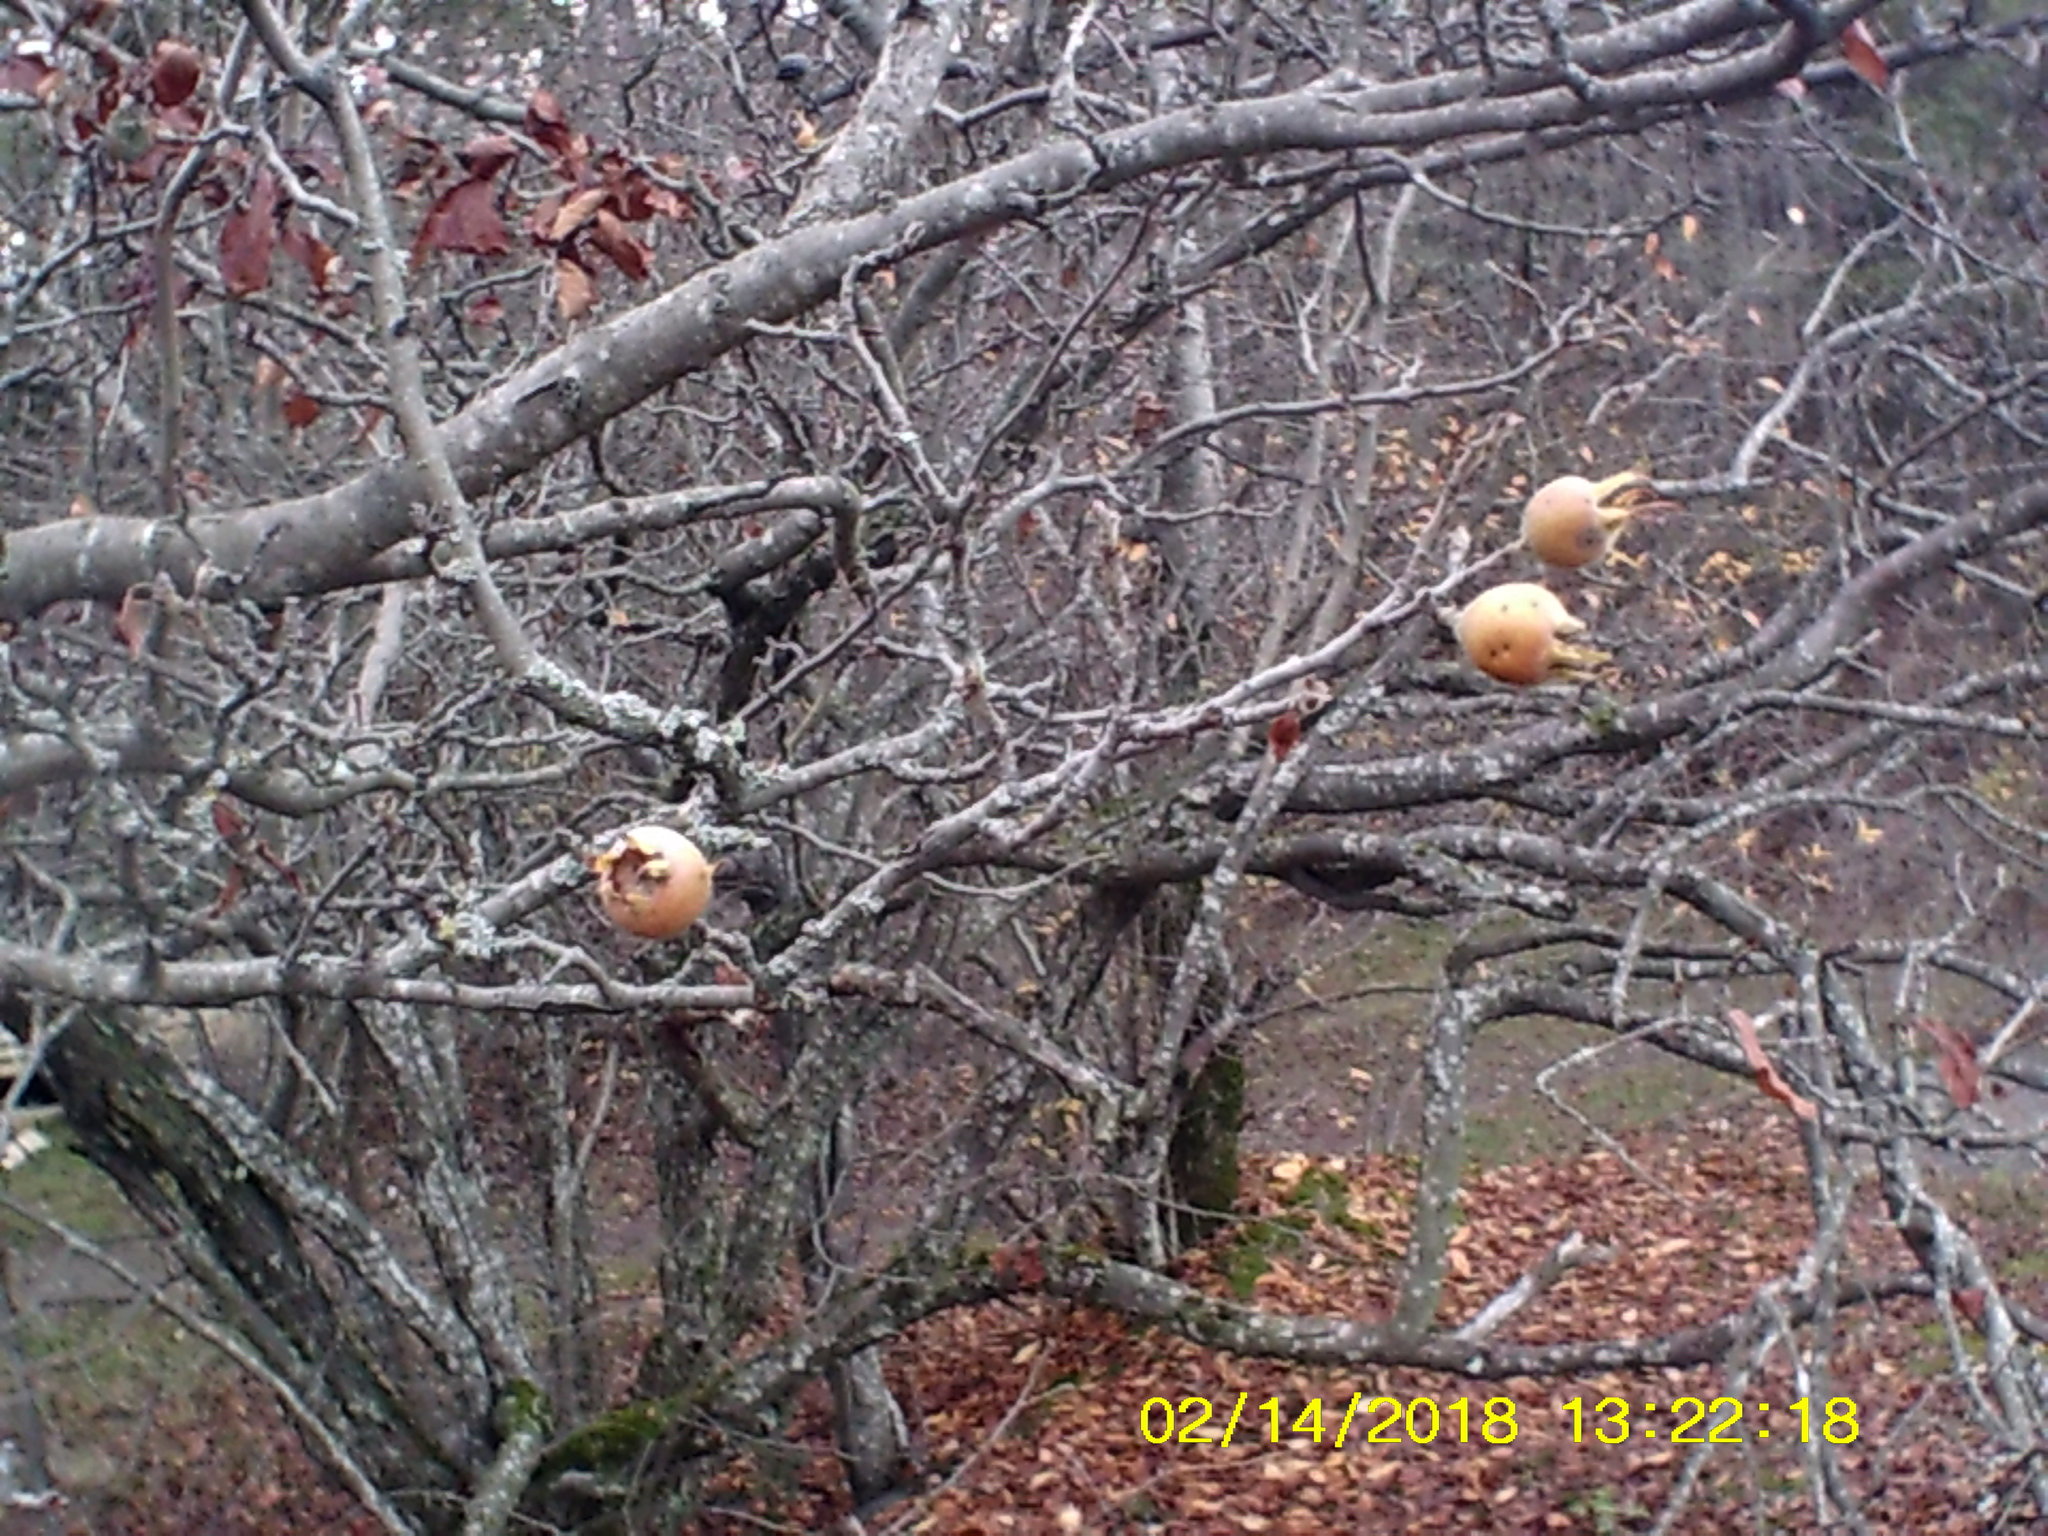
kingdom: Plantae
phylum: Tracheophyta
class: Magnoliopsida
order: Rosales
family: Rosaceae
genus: Mespilus
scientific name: Mespilus germanica
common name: Medlar
